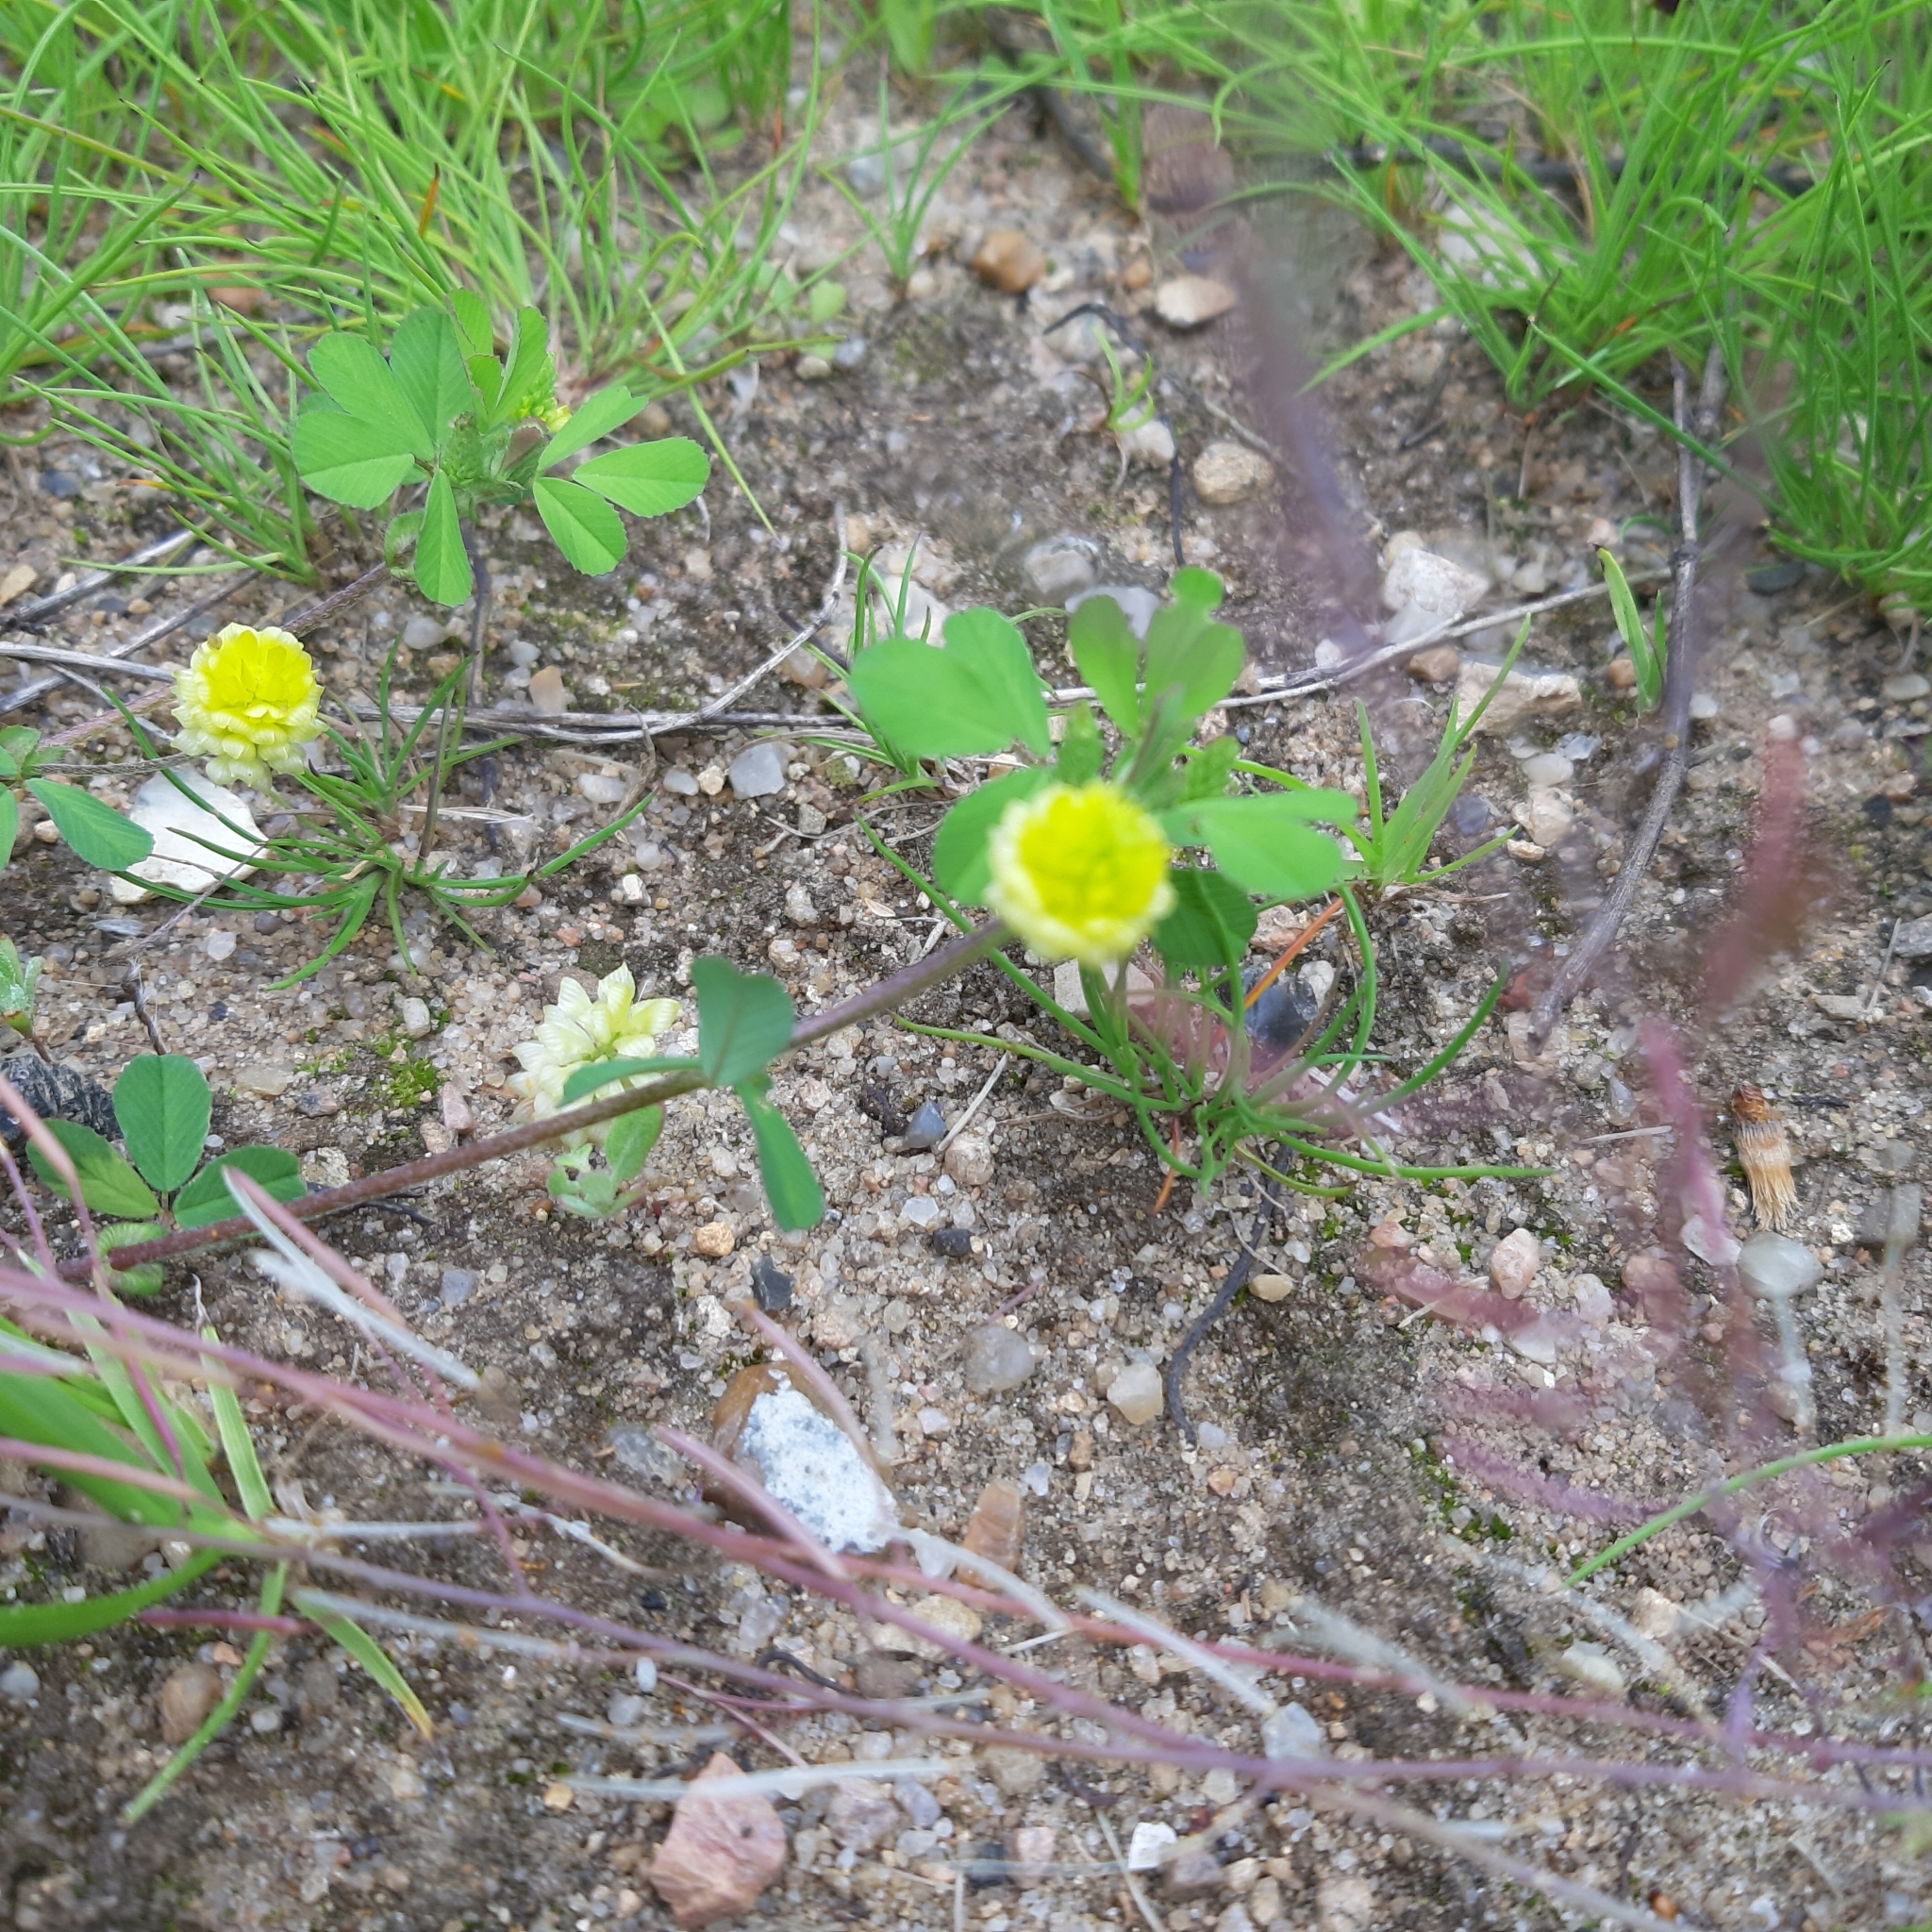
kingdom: Plantae
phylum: Tracheophyta
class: Magnoliopsida
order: Fabales
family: Fabaceae
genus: Trifolium
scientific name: Trifolium campestre
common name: Field clover
